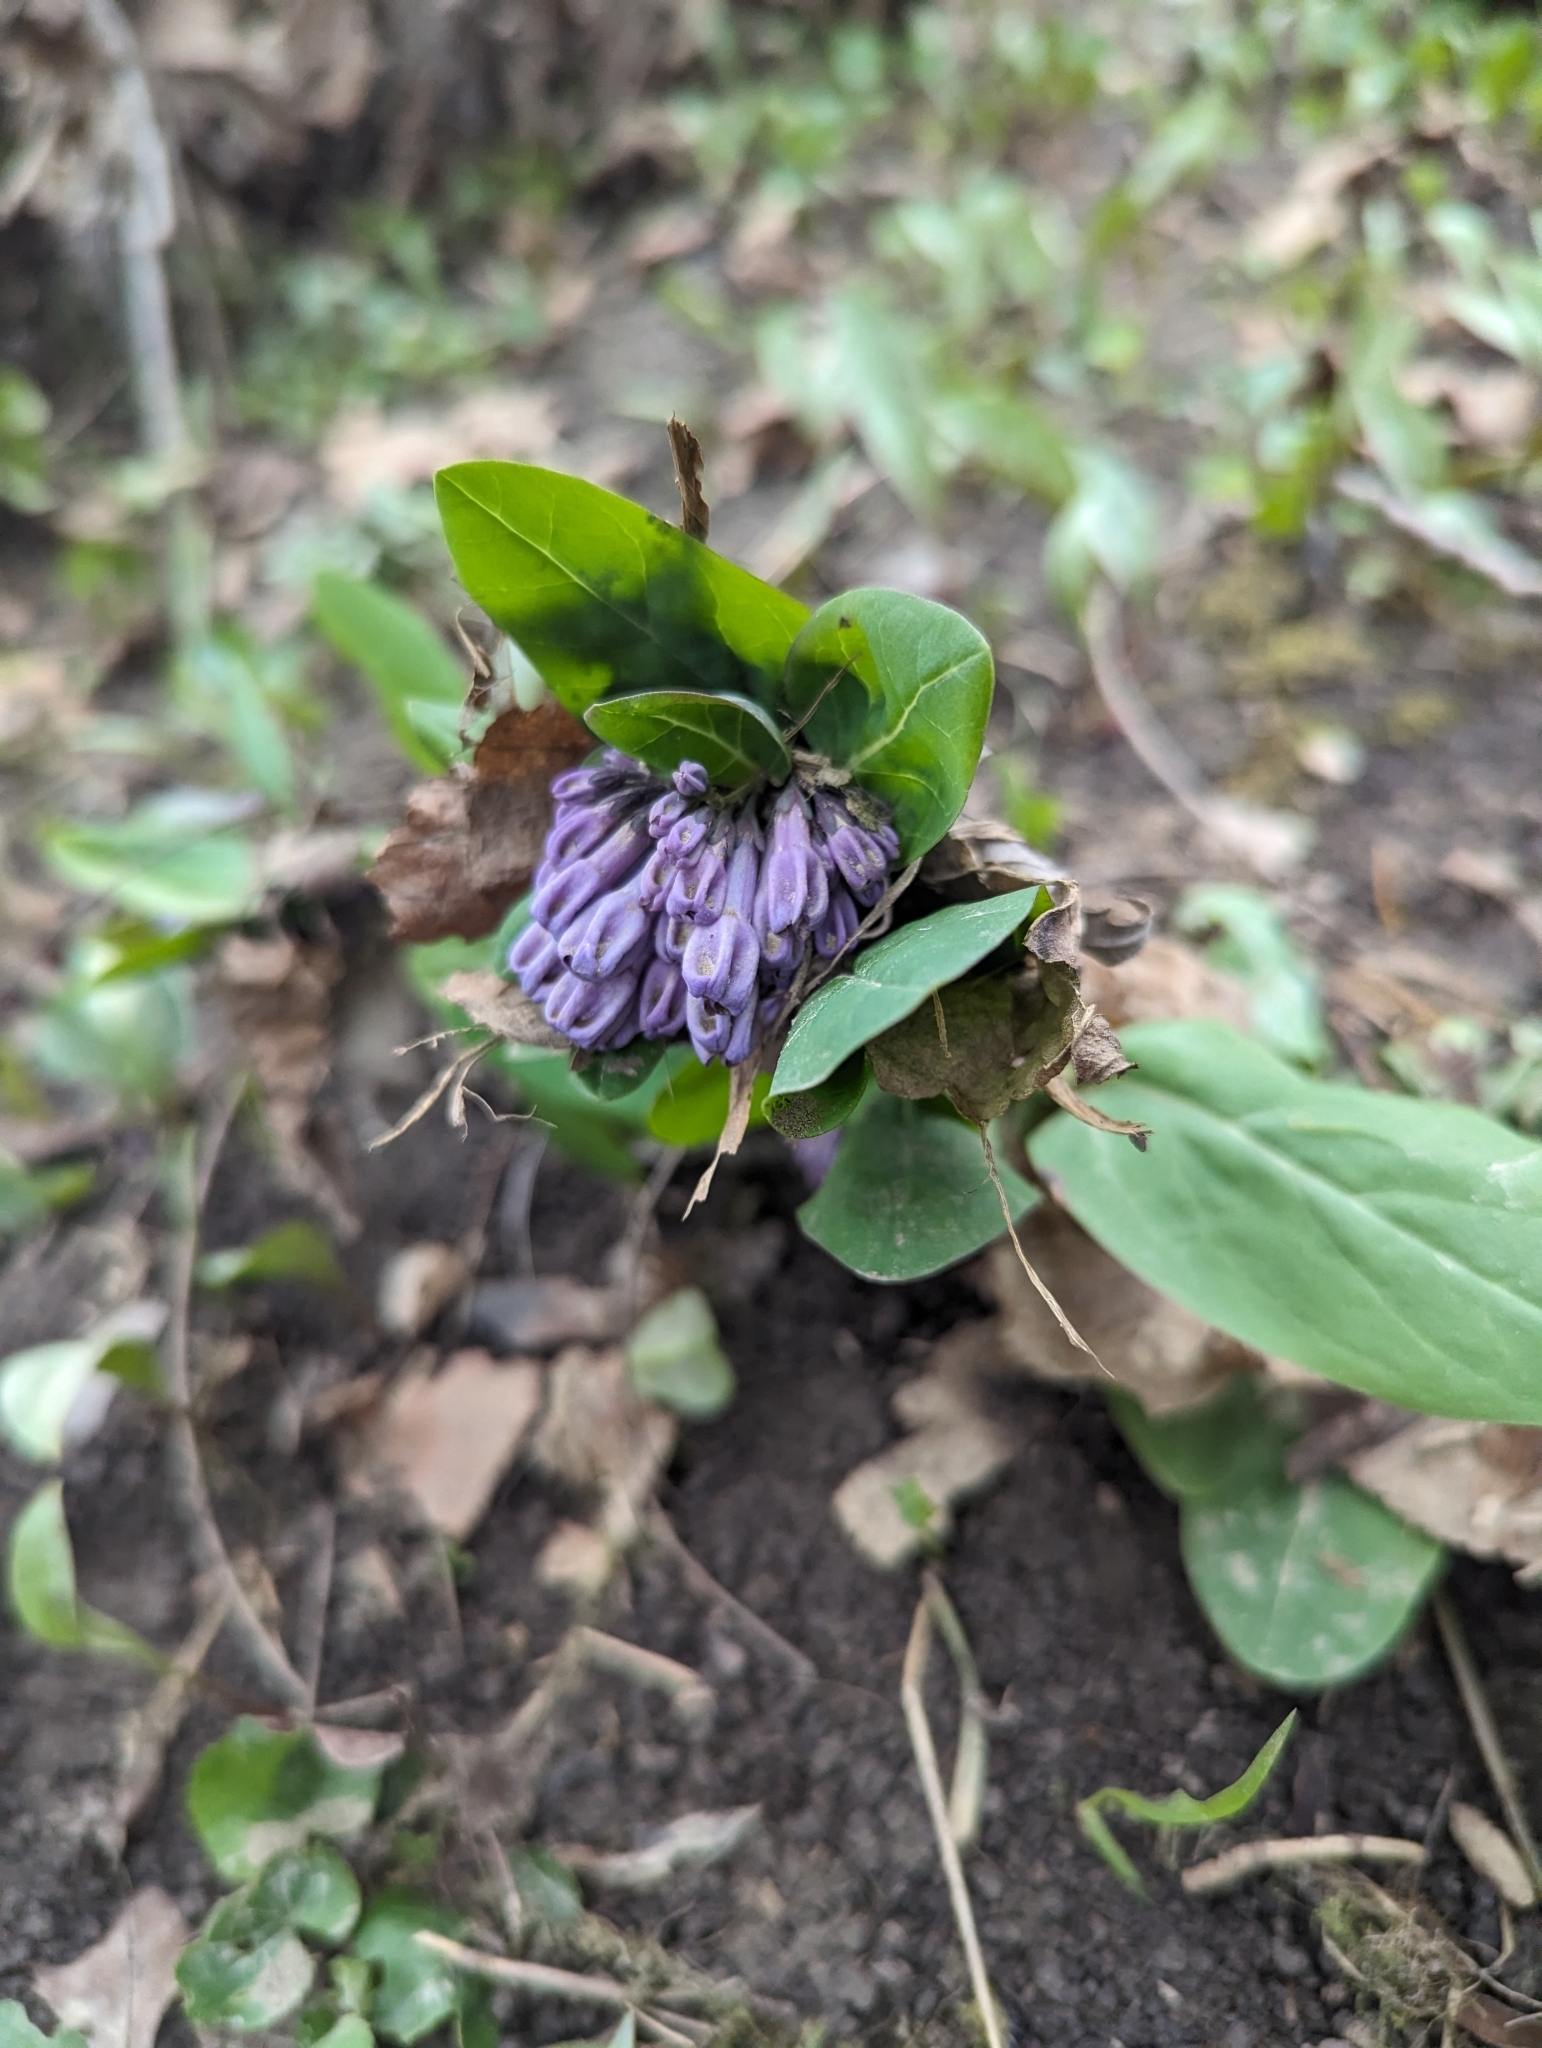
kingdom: Plantae
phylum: Tracheophyta
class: Magnoliopsida
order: Boraginales
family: Boraginaceae
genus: Mertensia
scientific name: Mertensia virginica
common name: Virginia bluebells
